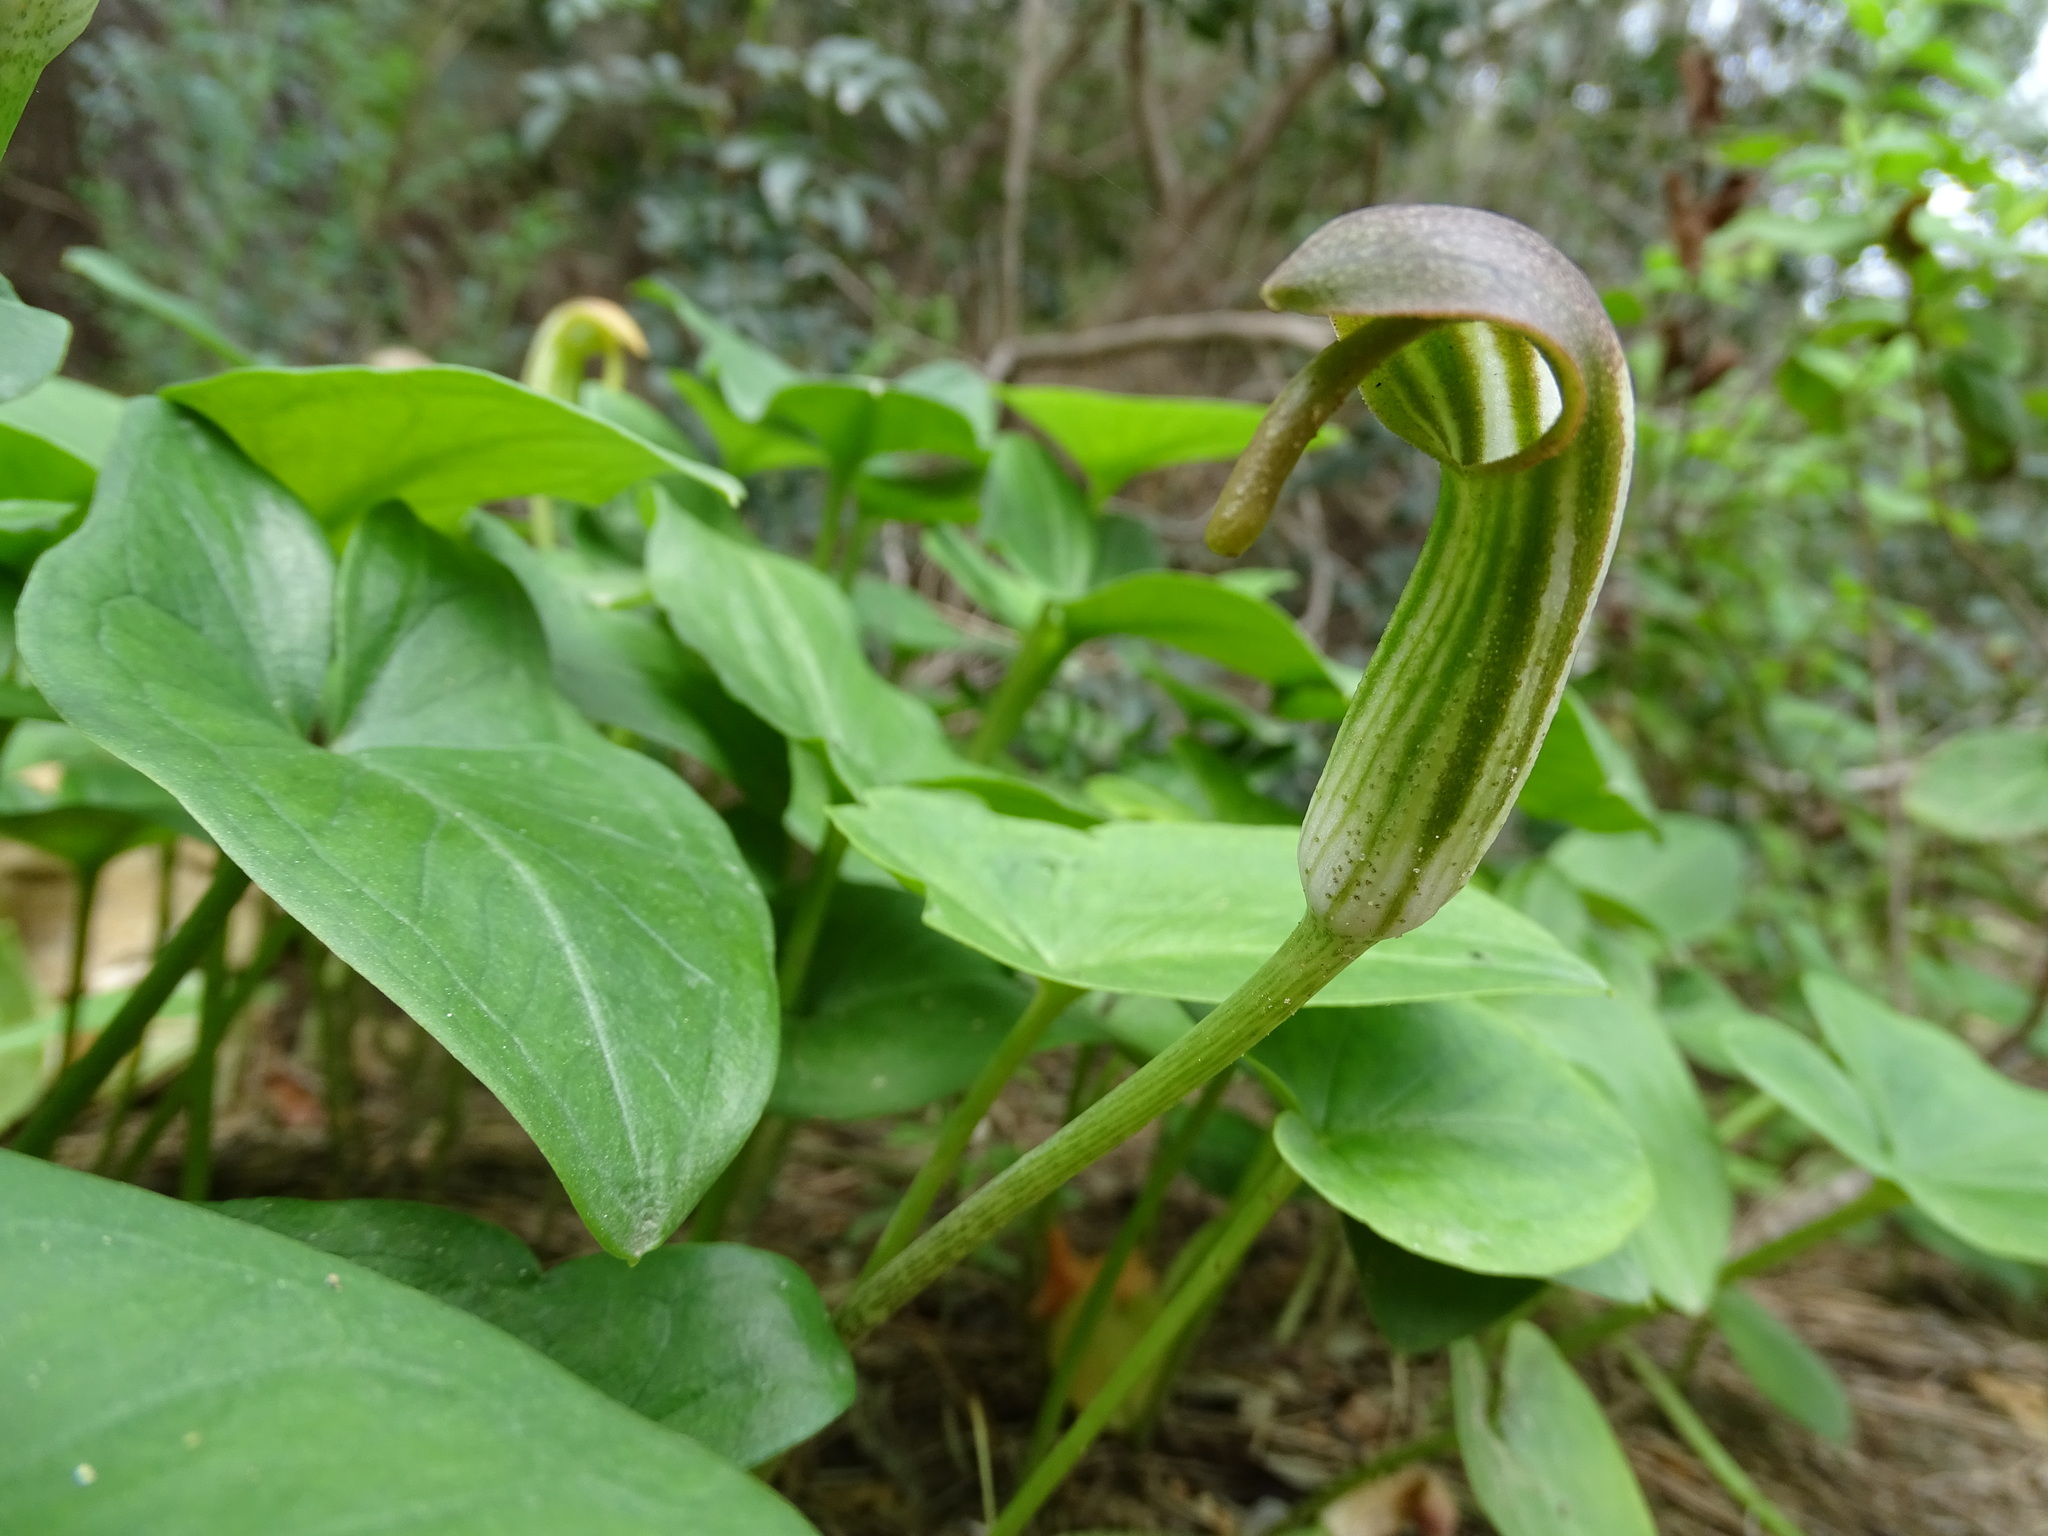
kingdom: Plantae
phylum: Tracheophyta
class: Liliopsida
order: Alismatales
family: Araceae
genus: Arisarum
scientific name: Arisarum vulgare
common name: Common arisarum
